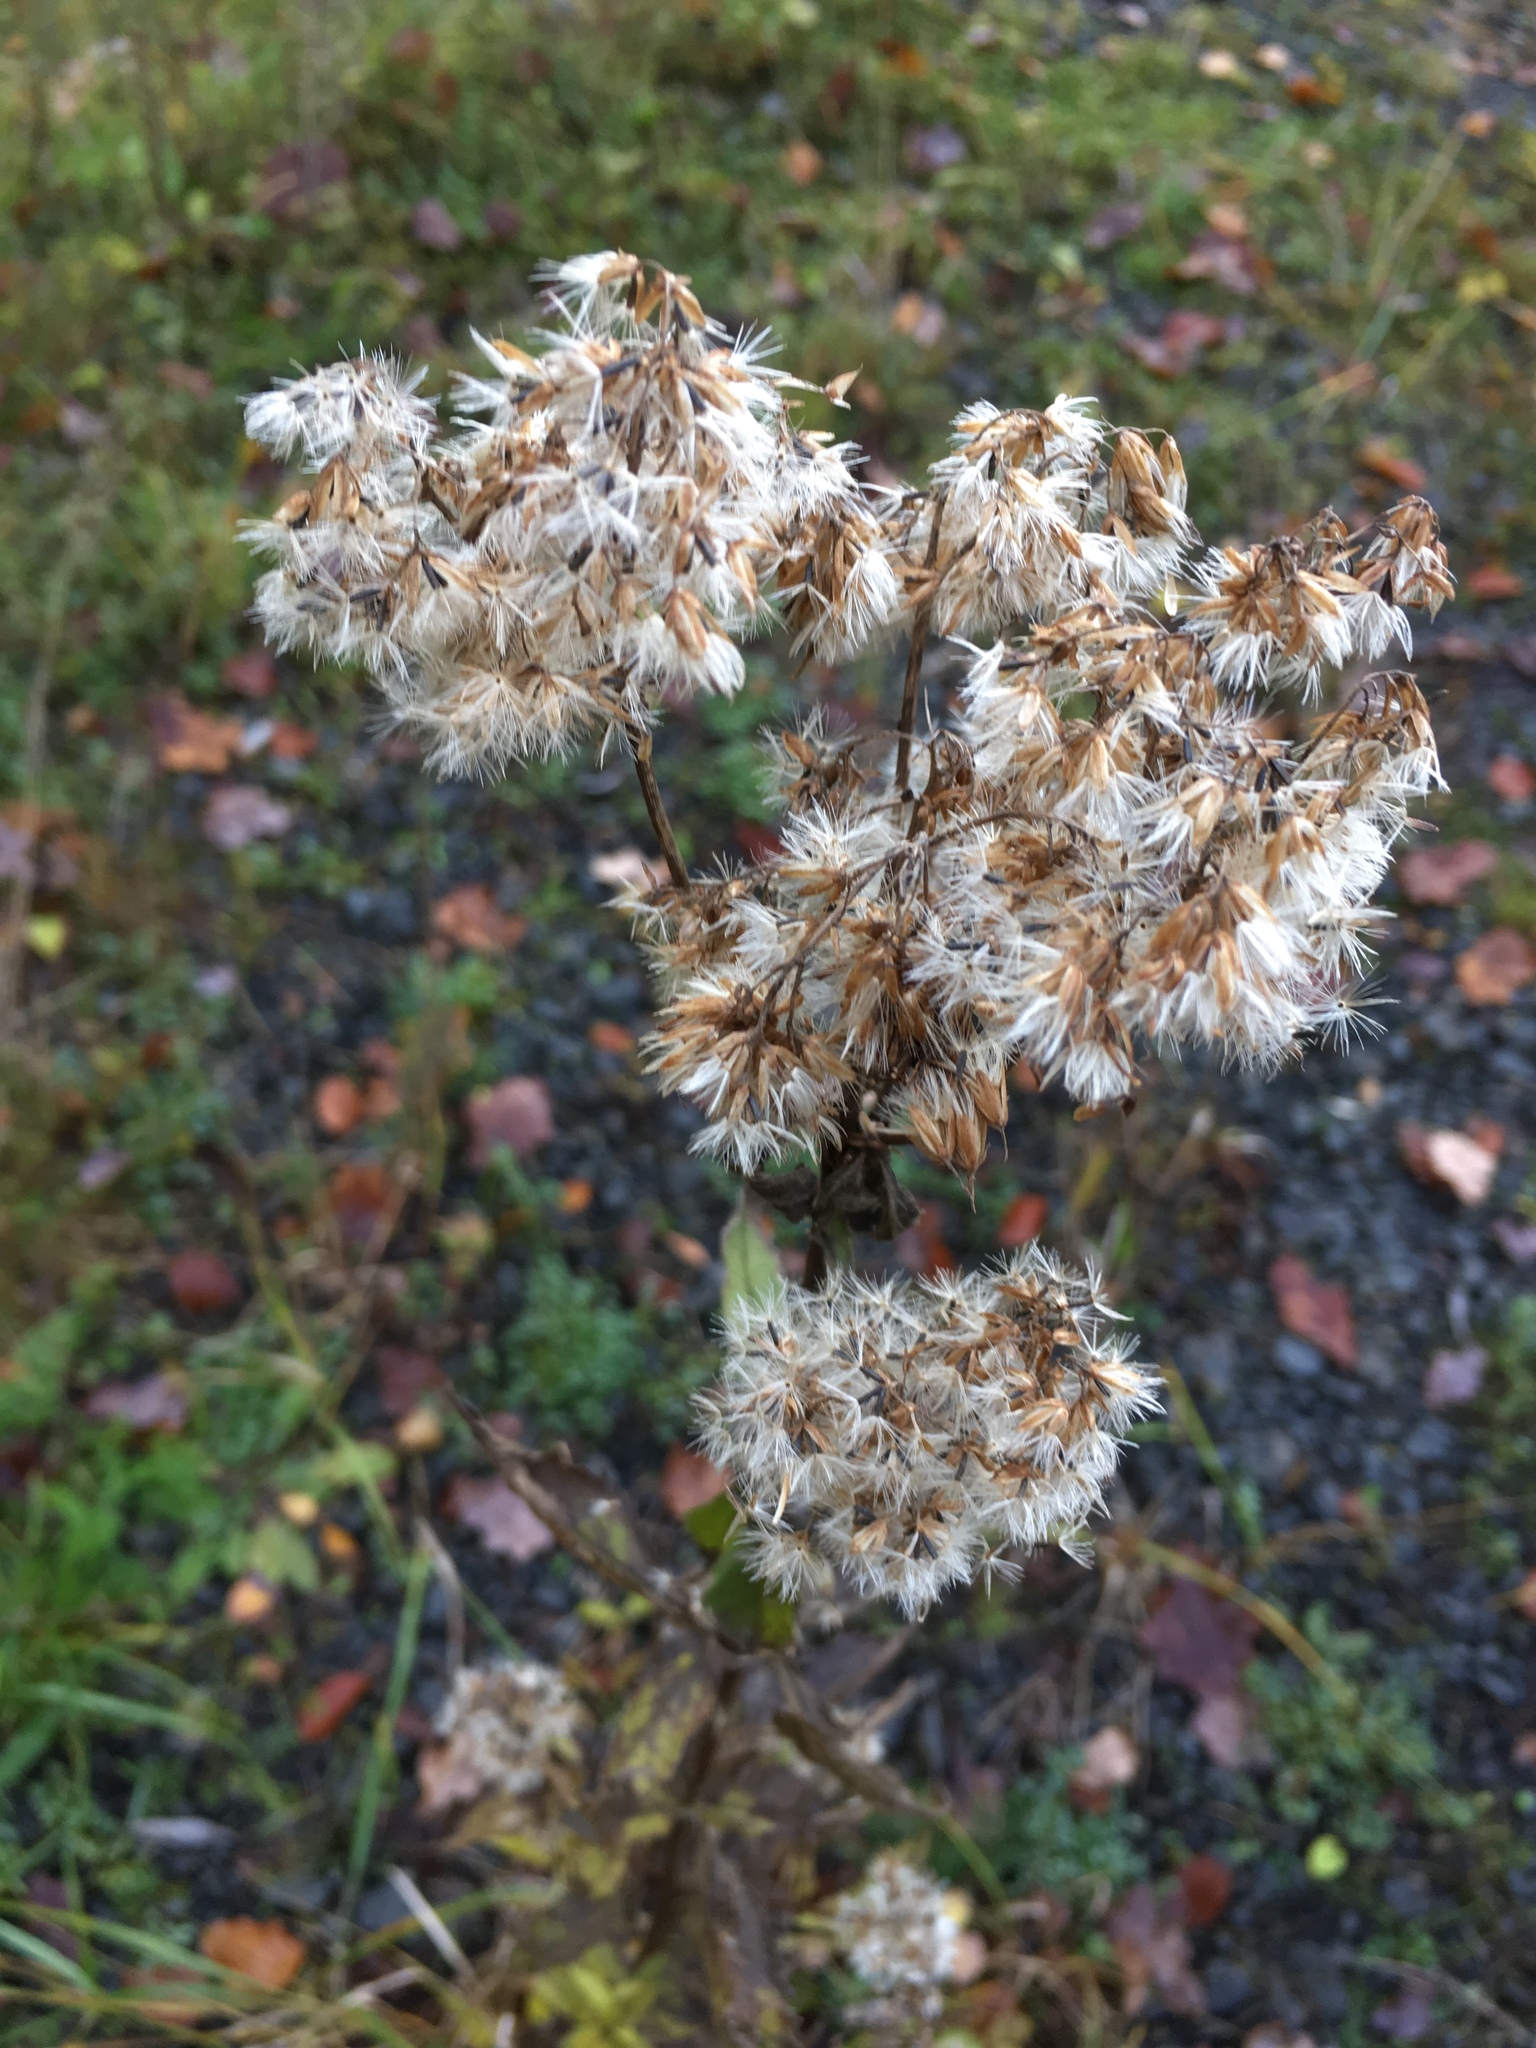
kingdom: Plantae
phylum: Tracheophyta
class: Magnoliopsida
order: Asterales
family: Asteraceae
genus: Eupatorium
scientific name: Eupatorium cannabinum
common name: Hemp-agrimony
